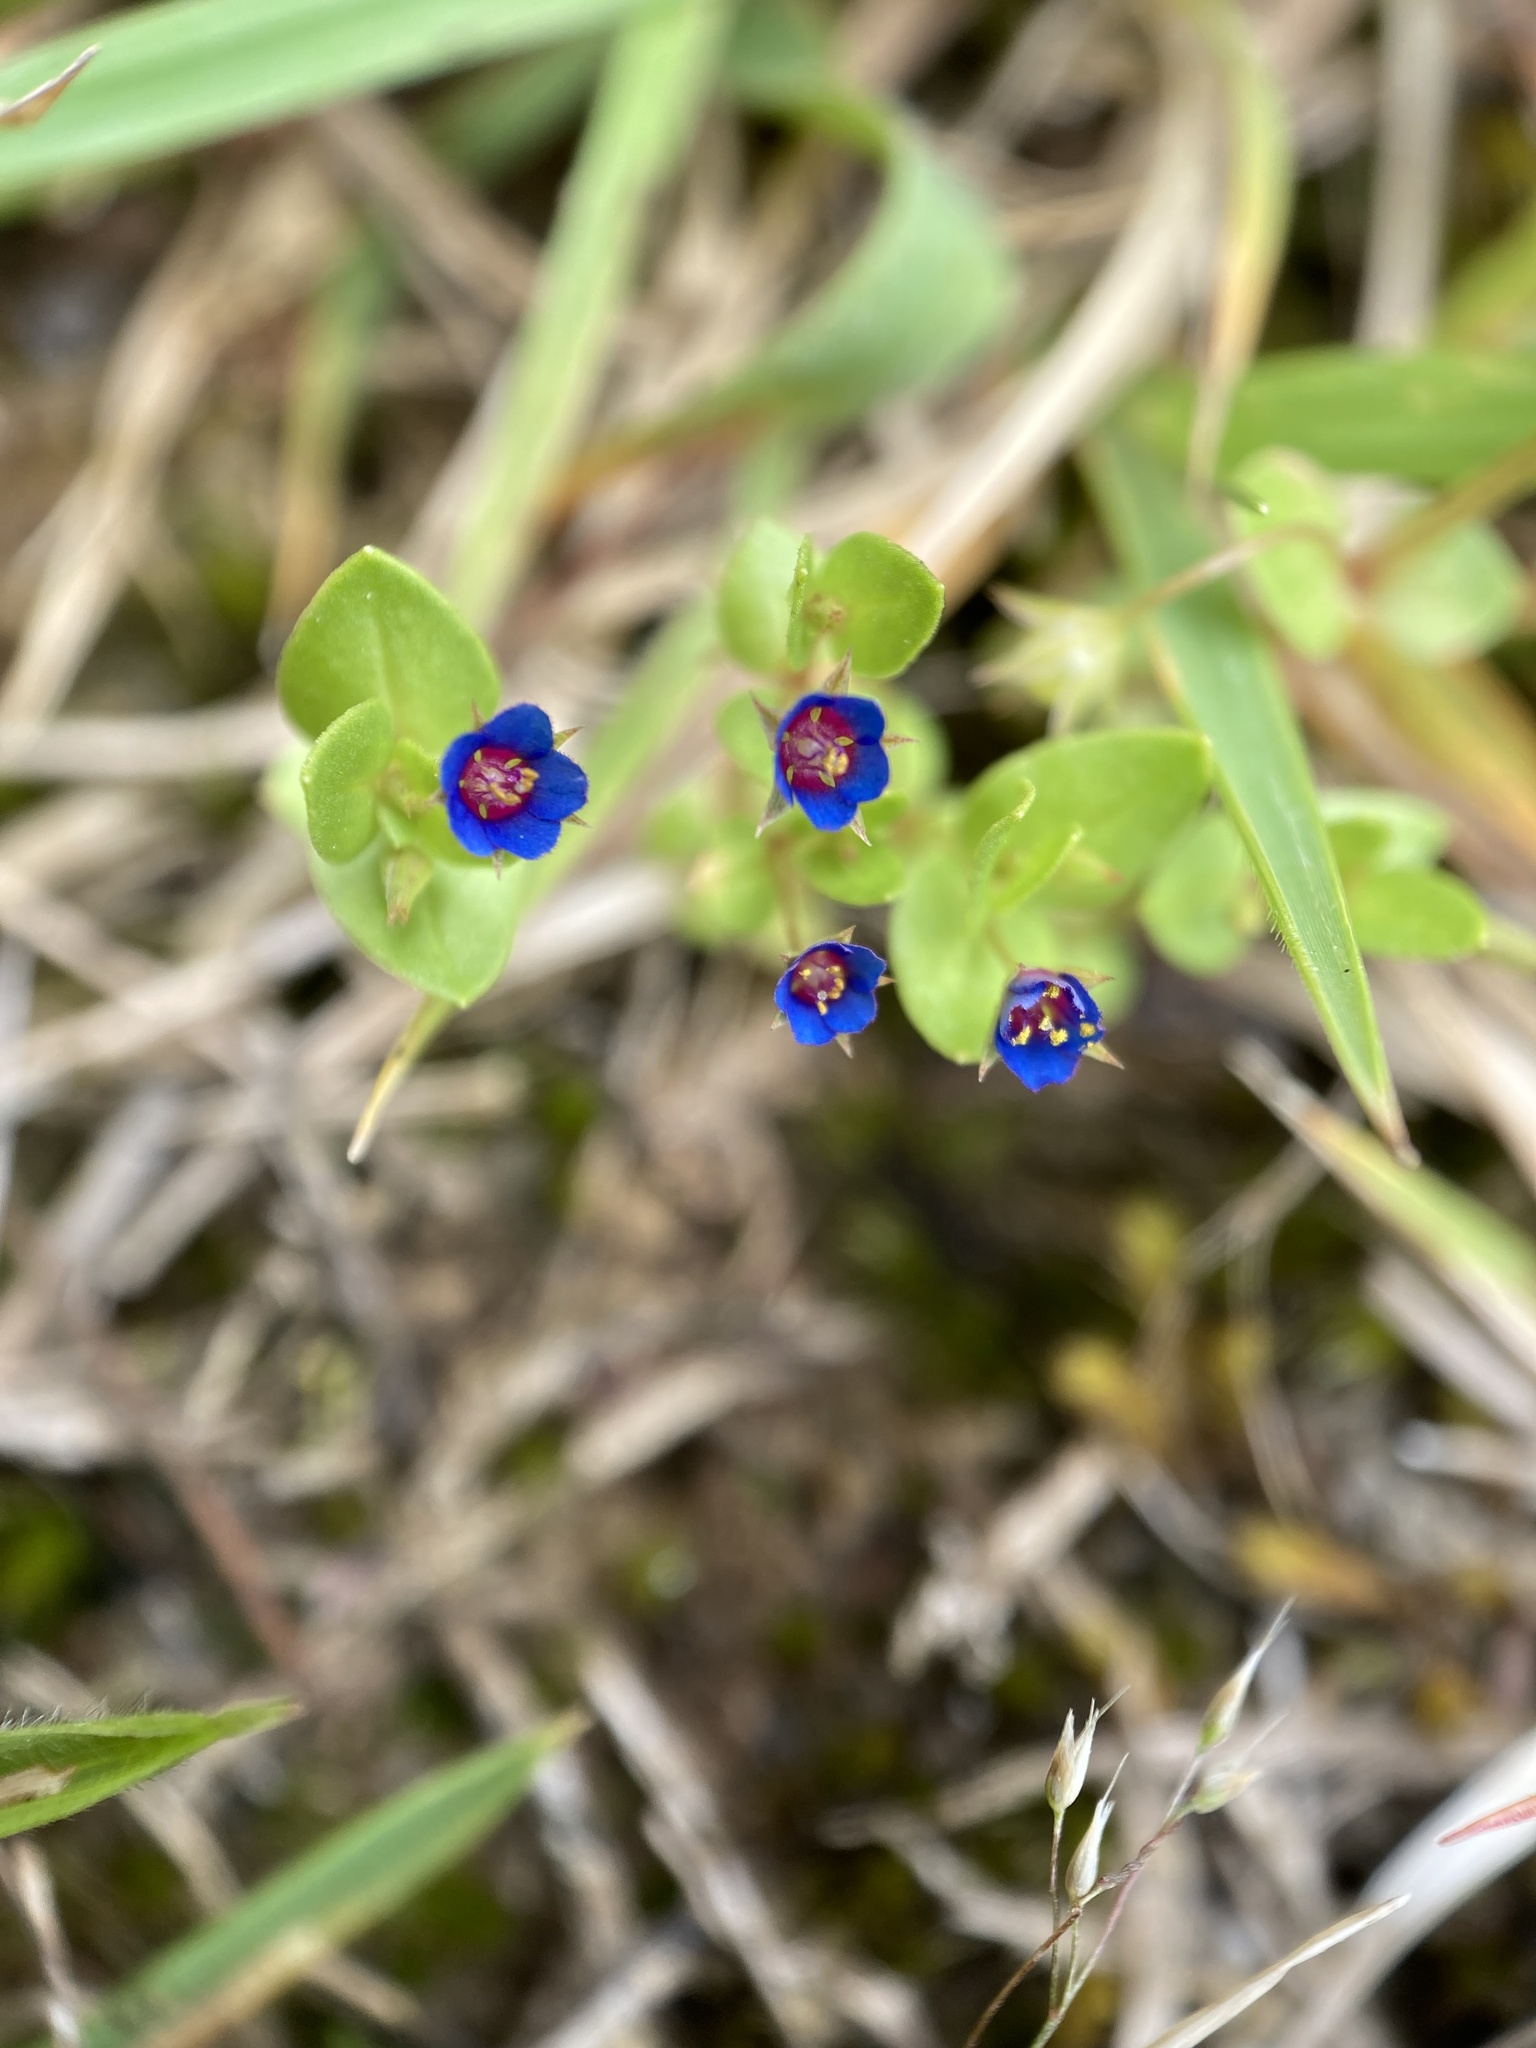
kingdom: Plantae
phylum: Tracheophyta
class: Magnoliopsida
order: Ericales
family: Primulaceae
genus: Lysimachia
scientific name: Lysimachia loeflingii
